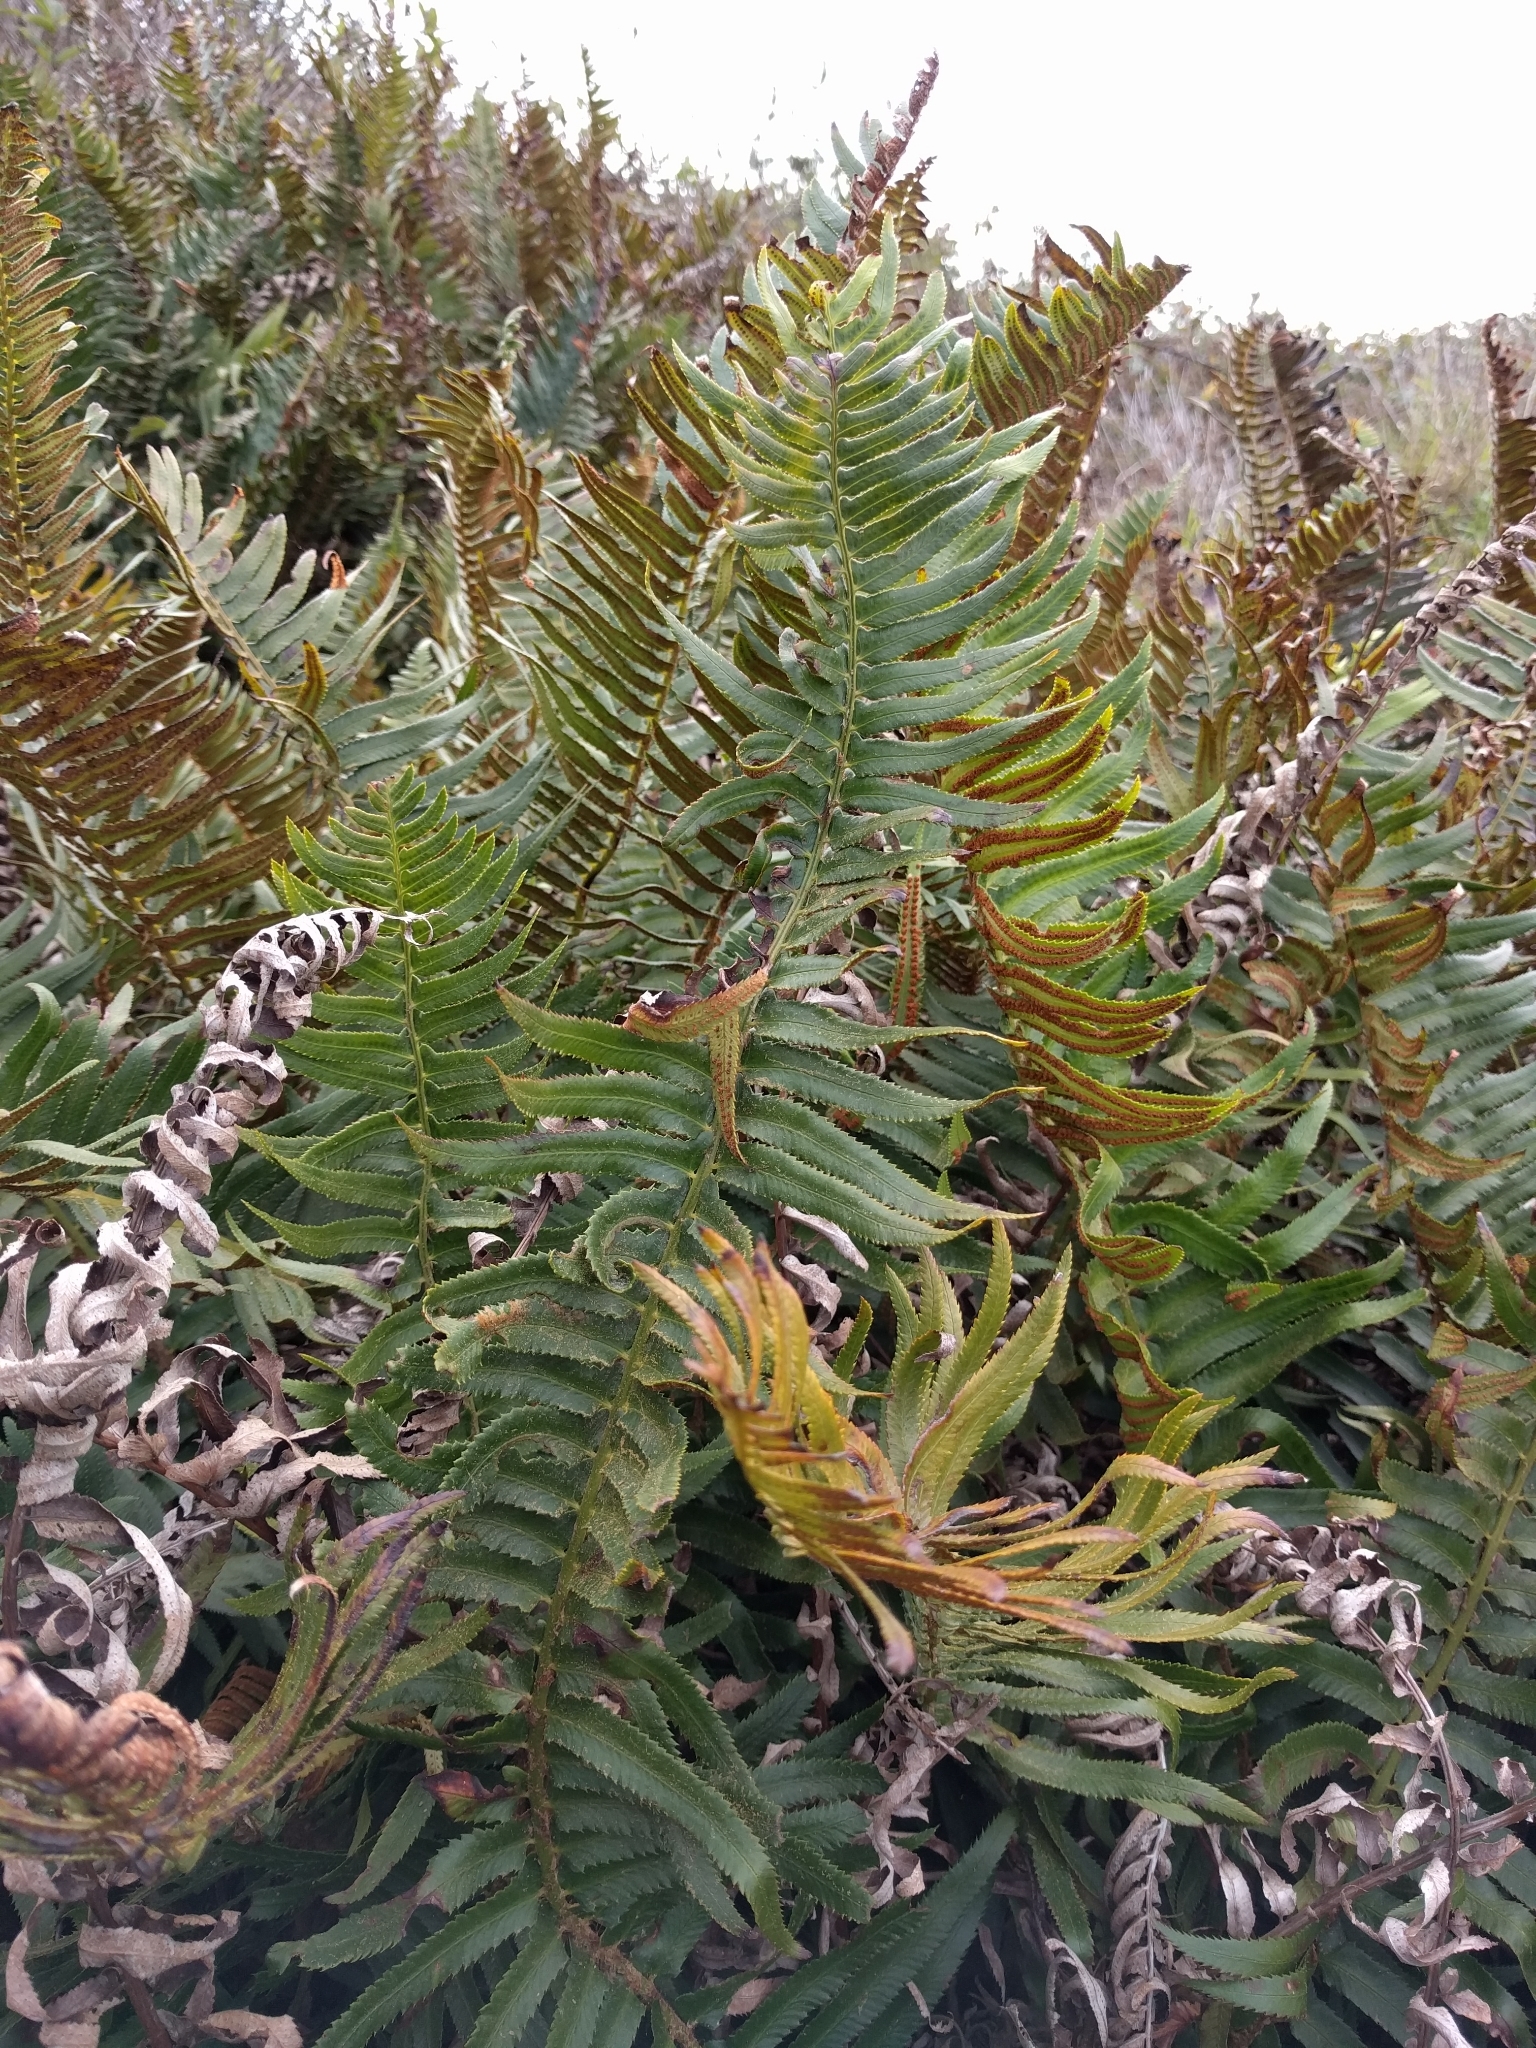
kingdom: Plantae
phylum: Tracheophyta
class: Polypodiopsida
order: Polypodiales
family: Dryopteridaceae
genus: Polystichum
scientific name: Polystichum munitum
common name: Western sword-fern
